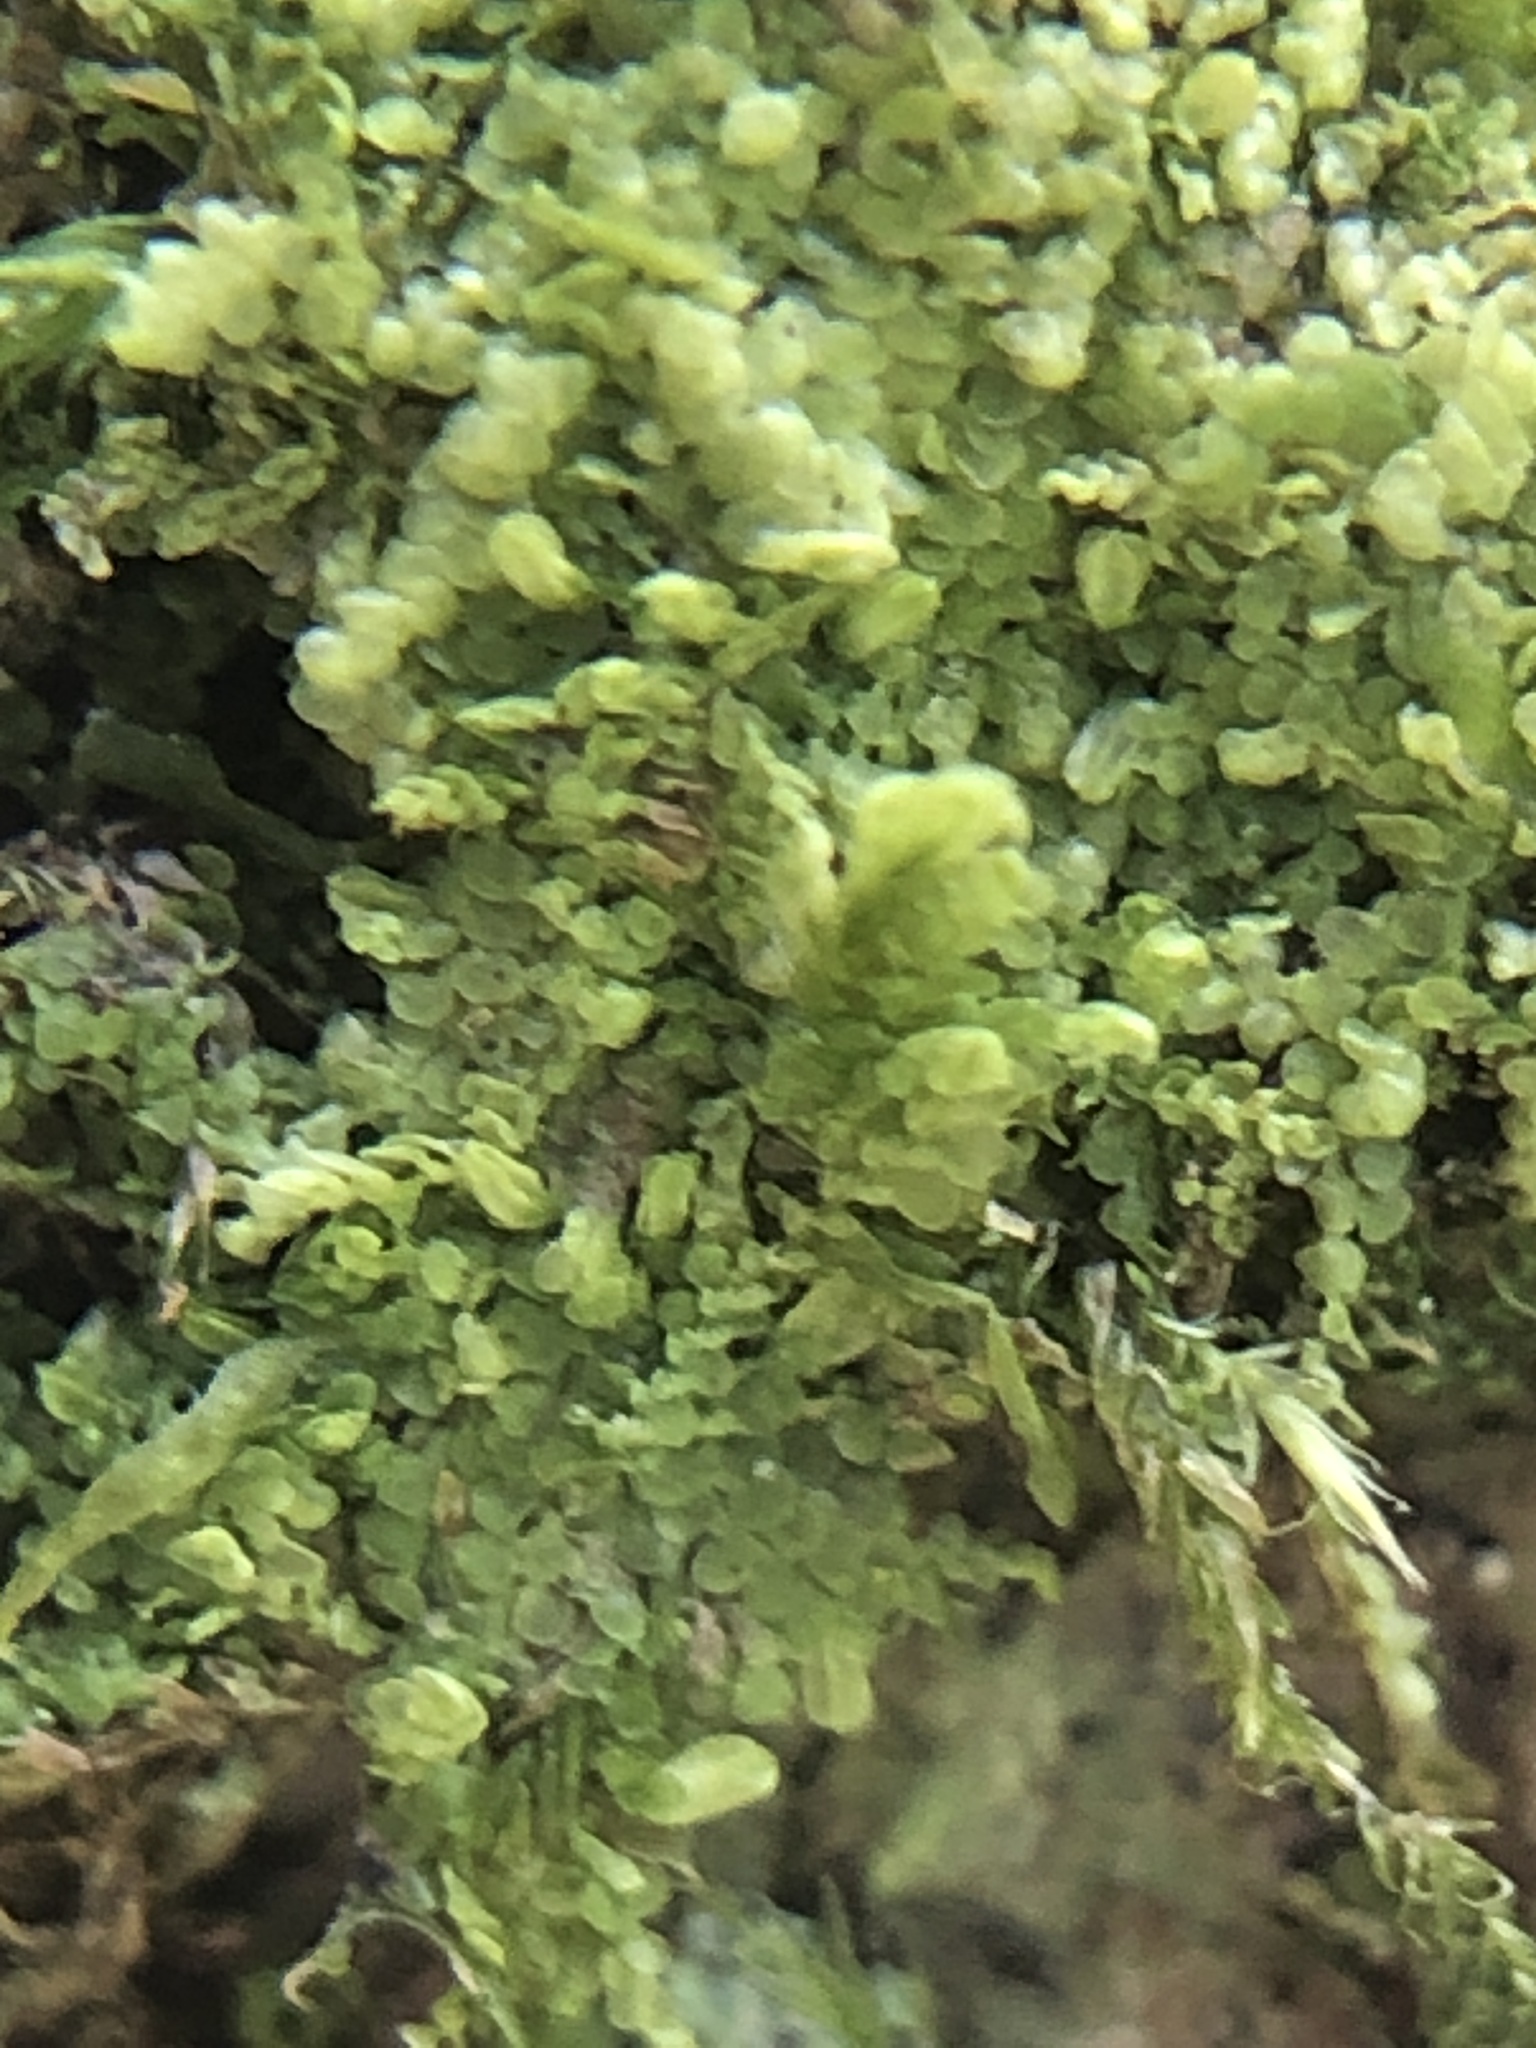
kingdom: Plantae
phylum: Marchantiophyta
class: Jungermanniopsida
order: Porellales
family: Lejeuneaceae
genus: Lejeunea
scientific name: Lejeunea lamacerina
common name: Western pouncewort
